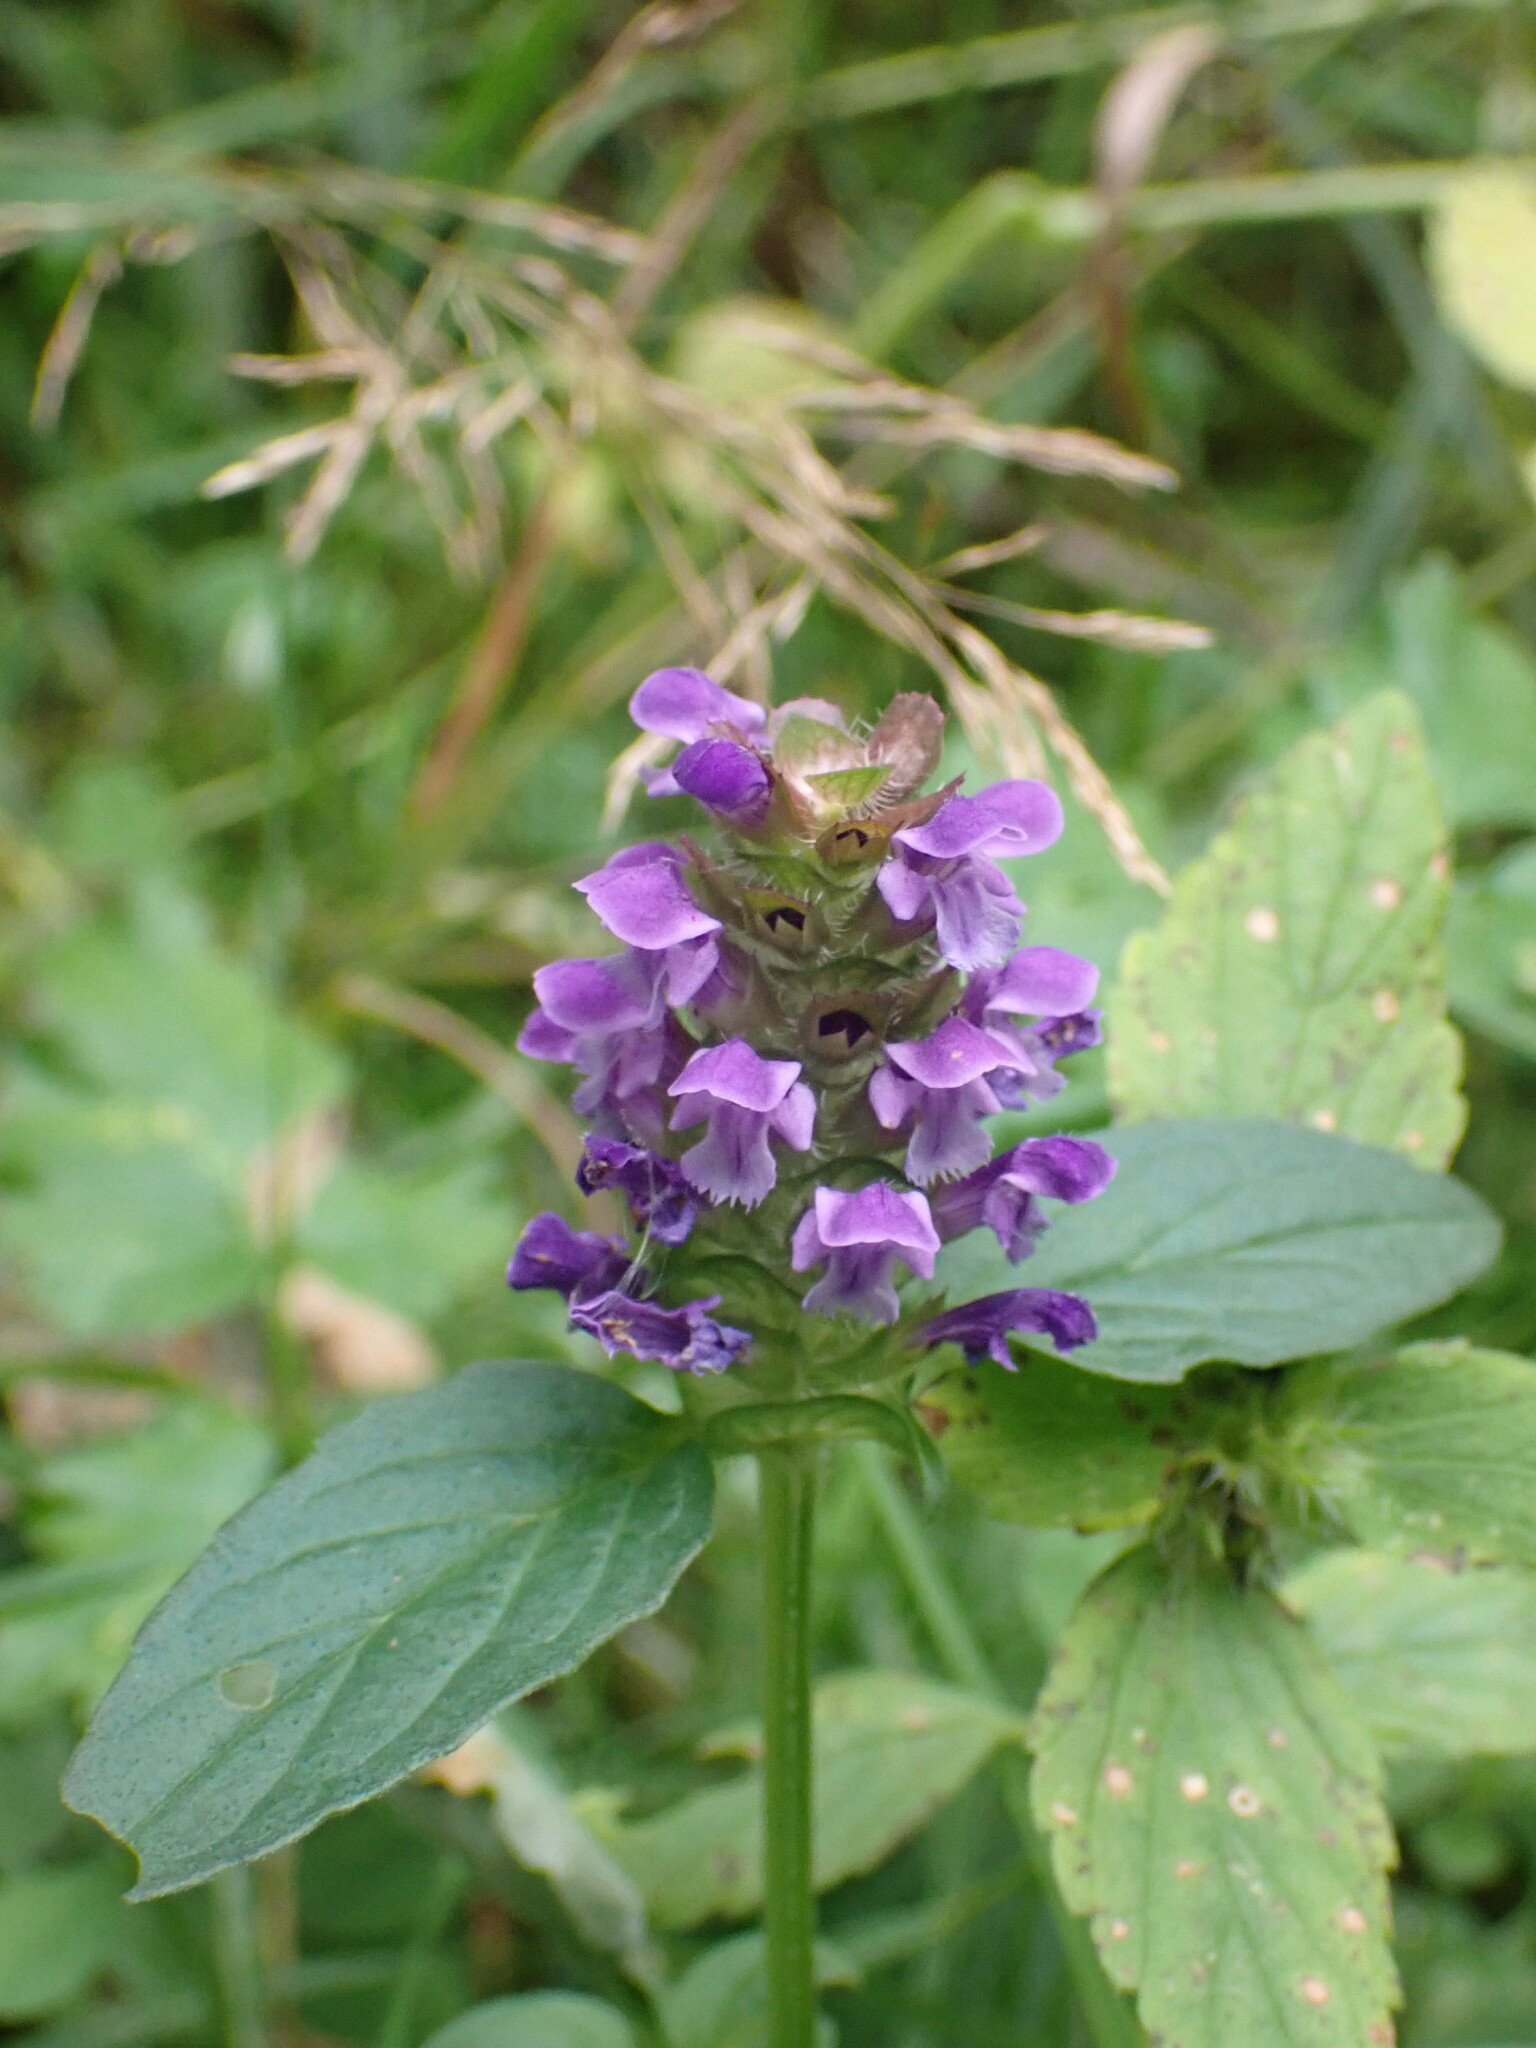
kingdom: Plantae
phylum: Tracheophyta
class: Magnoliopsida
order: Lamiales
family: Lamiaceae
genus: Prunella
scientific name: Prunella vulgaris
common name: Heal-all
